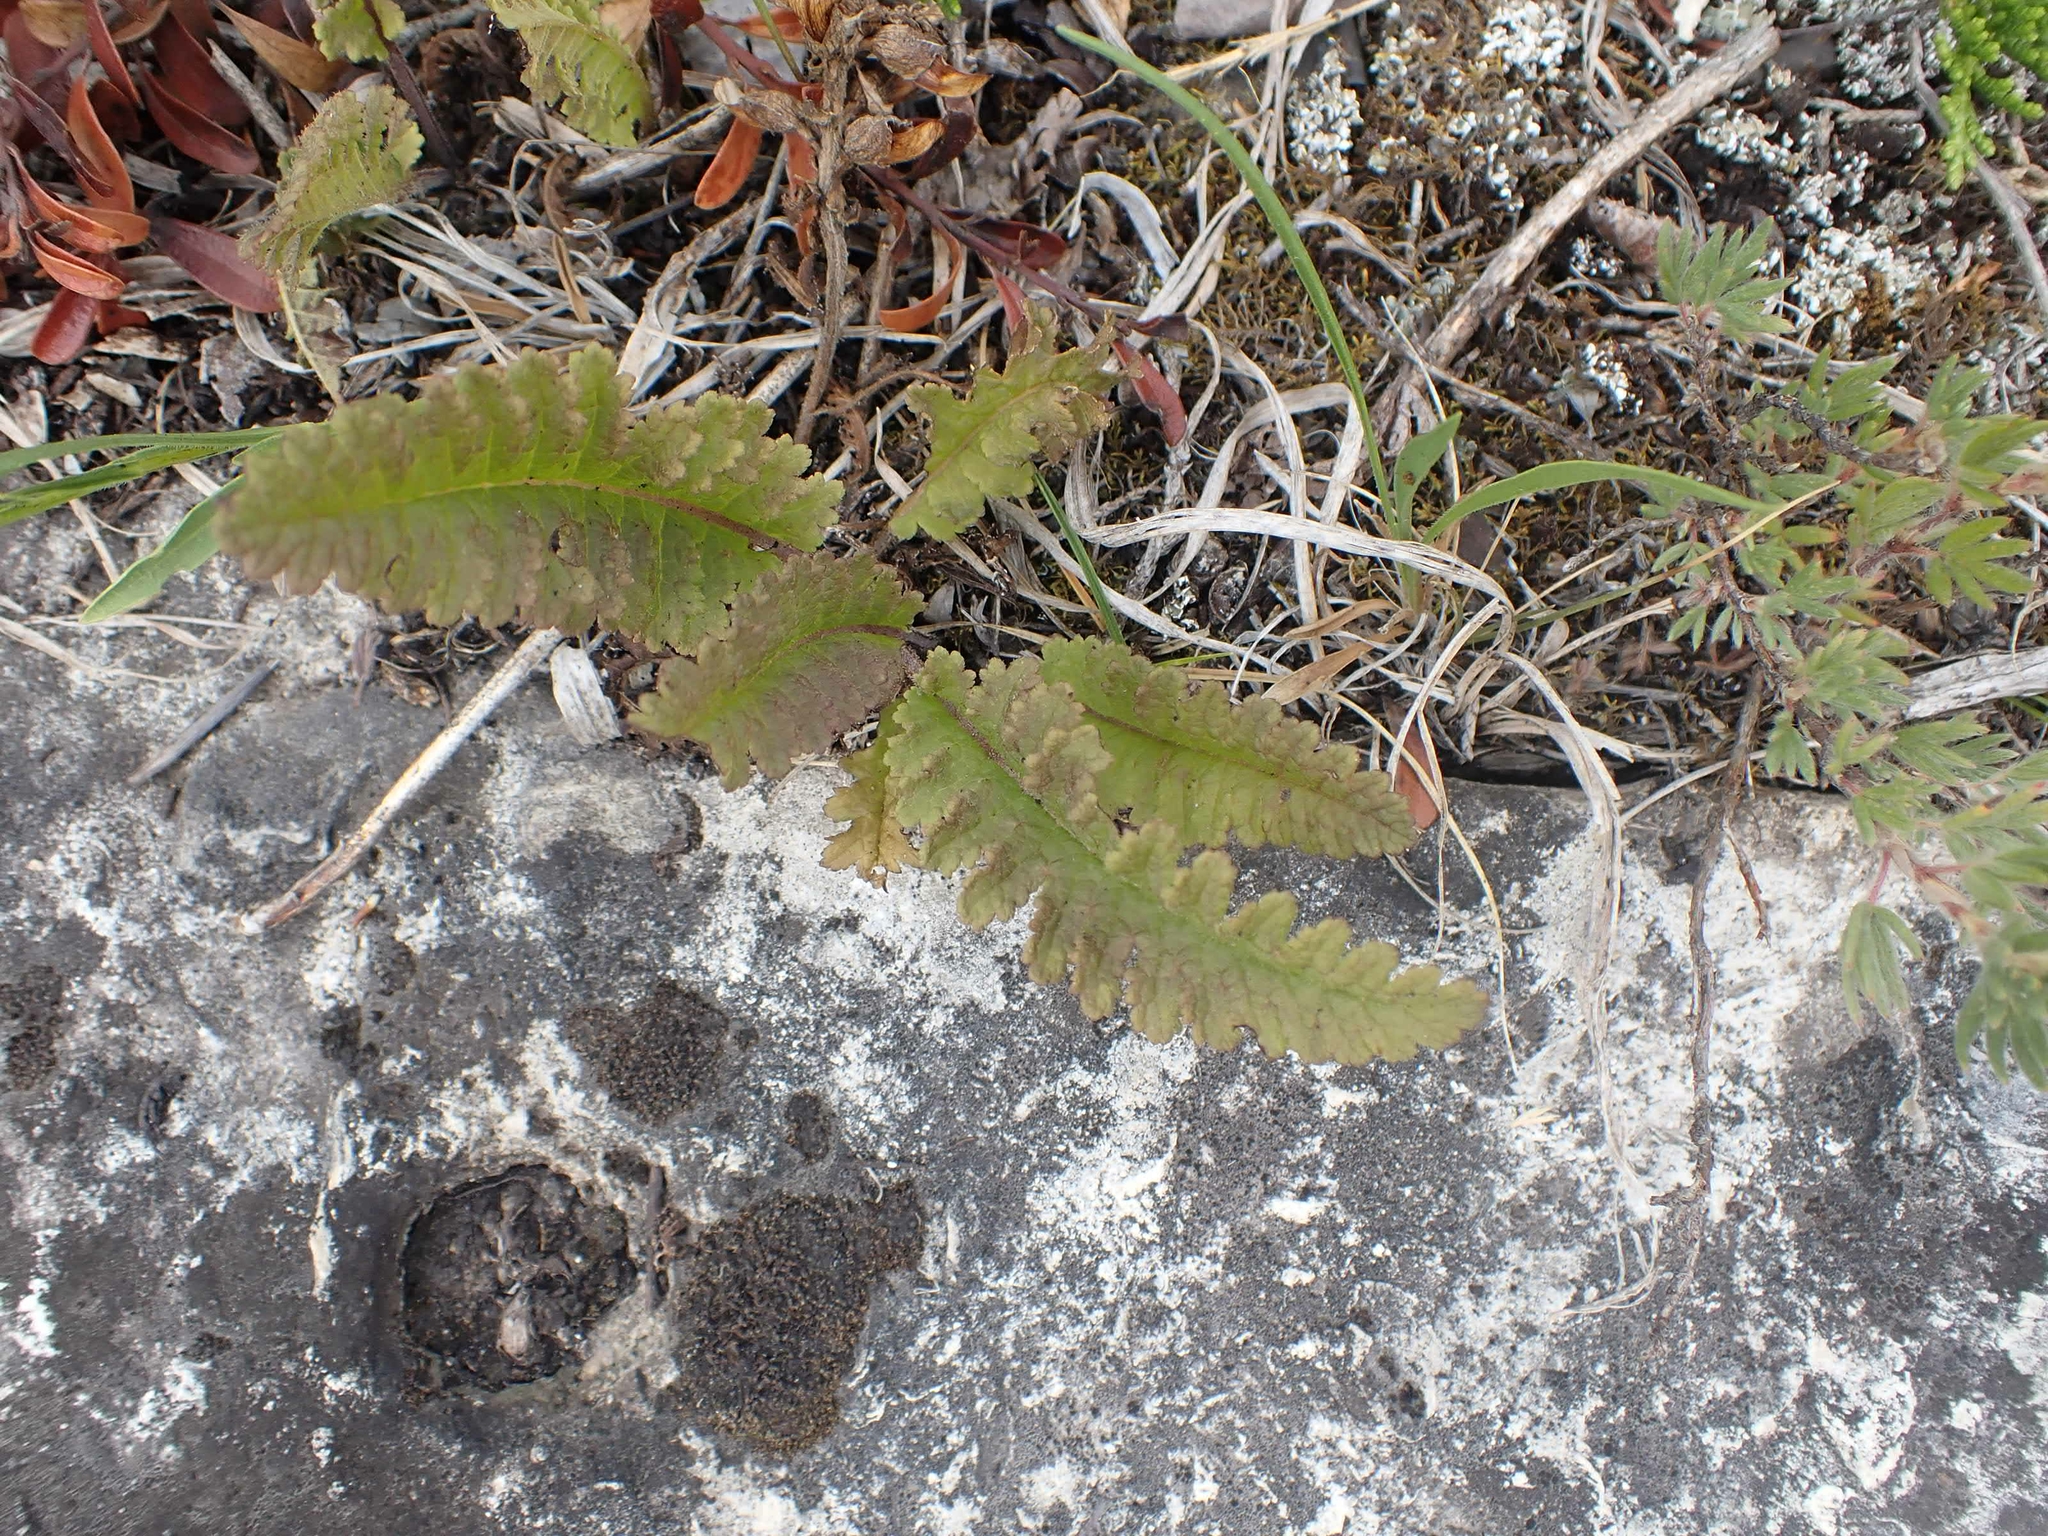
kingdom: Plantae
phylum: Tracheophyta
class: Magnoliopsida
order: Lamiales
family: Orobanchaceae
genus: Pedicularis
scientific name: Pedicularis canadensis
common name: Early lousewort
